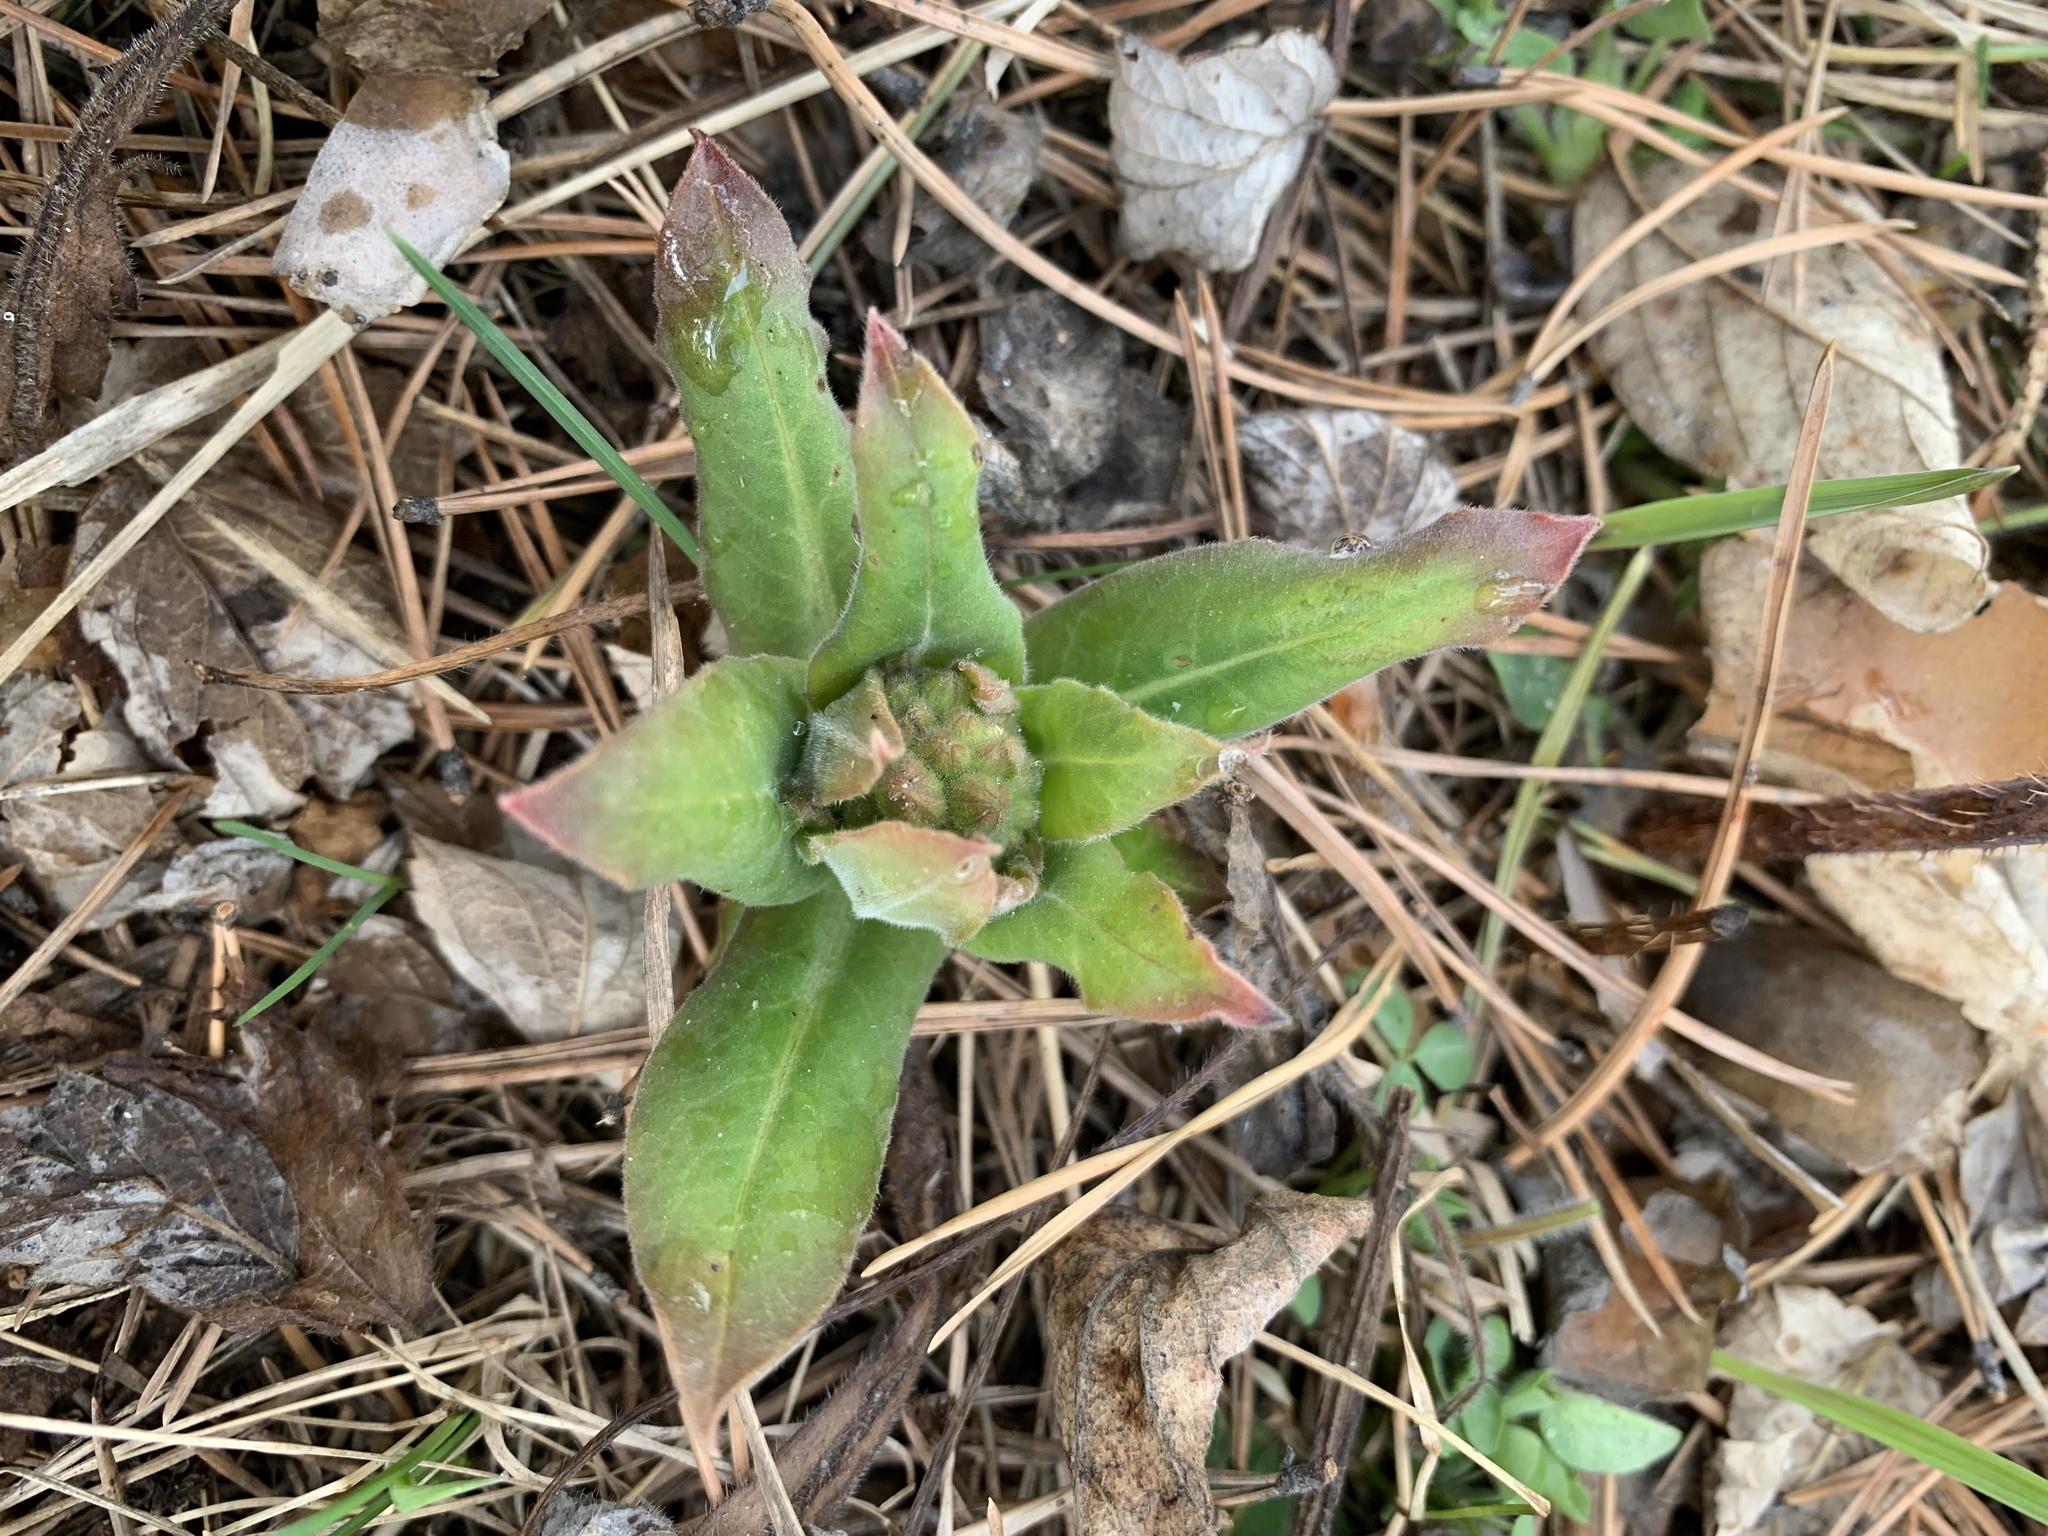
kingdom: Plantae
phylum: Tracheophyta
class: Magnoliopsida
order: Boraginales
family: Boraginaceae
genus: Pulmonaria
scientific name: Pulmonaria mollis
